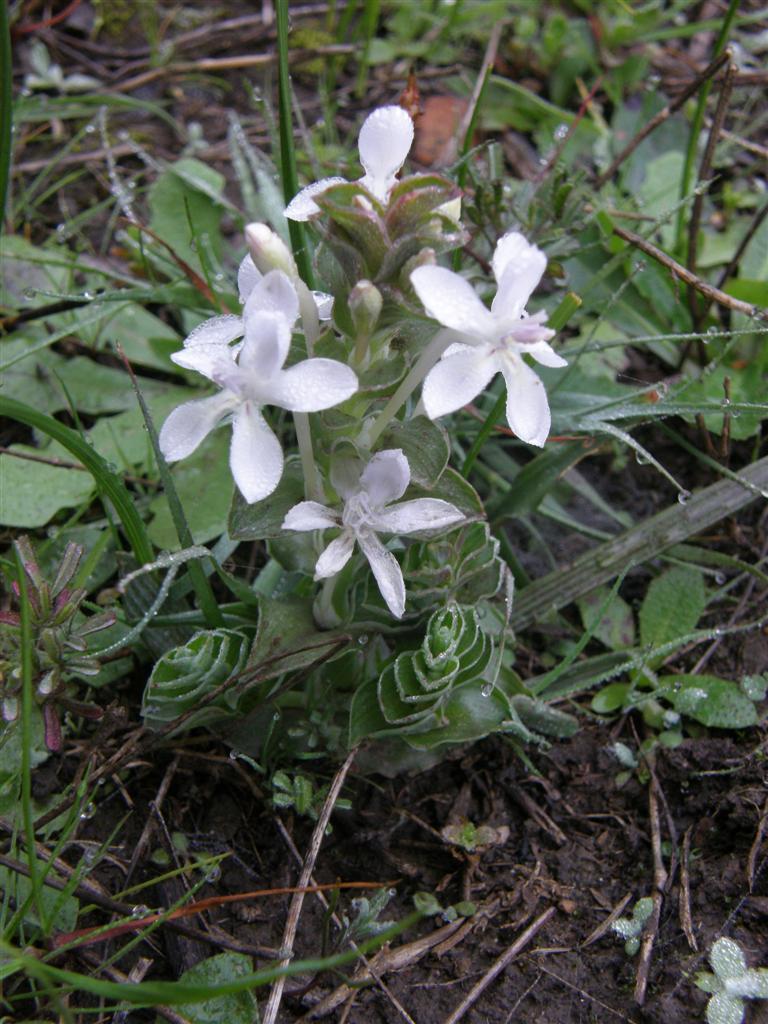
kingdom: Plantae
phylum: Tracheophyta
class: Liliopsida
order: Asparagales
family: Iridaceae
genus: Lapeirousia
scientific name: Lapeirousia pyramidalis
